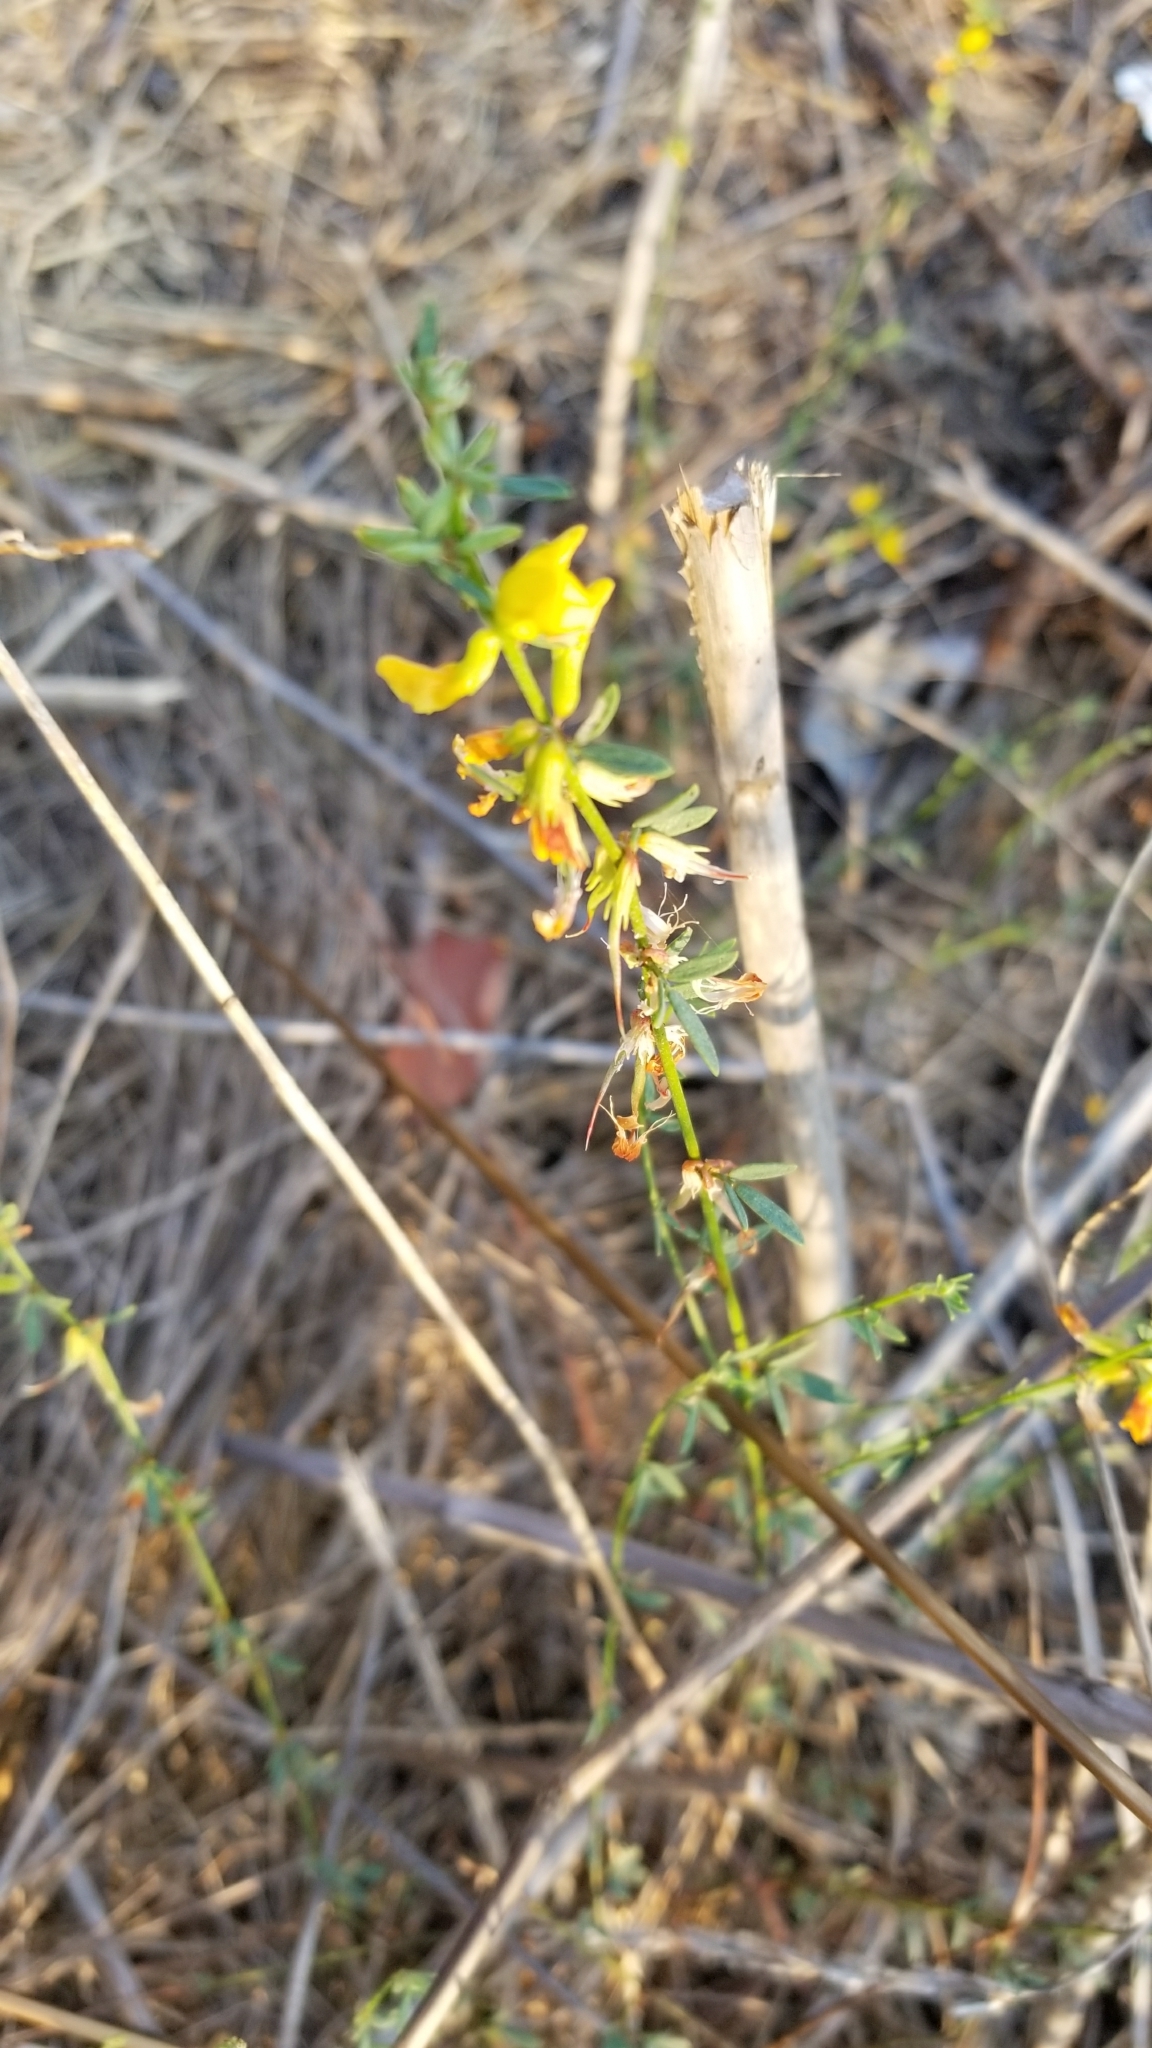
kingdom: Plantae
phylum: Tracheophyta
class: Magnoliopsida
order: Fabales
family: Fabaceae
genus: Acmispon
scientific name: Acmispon glaber
